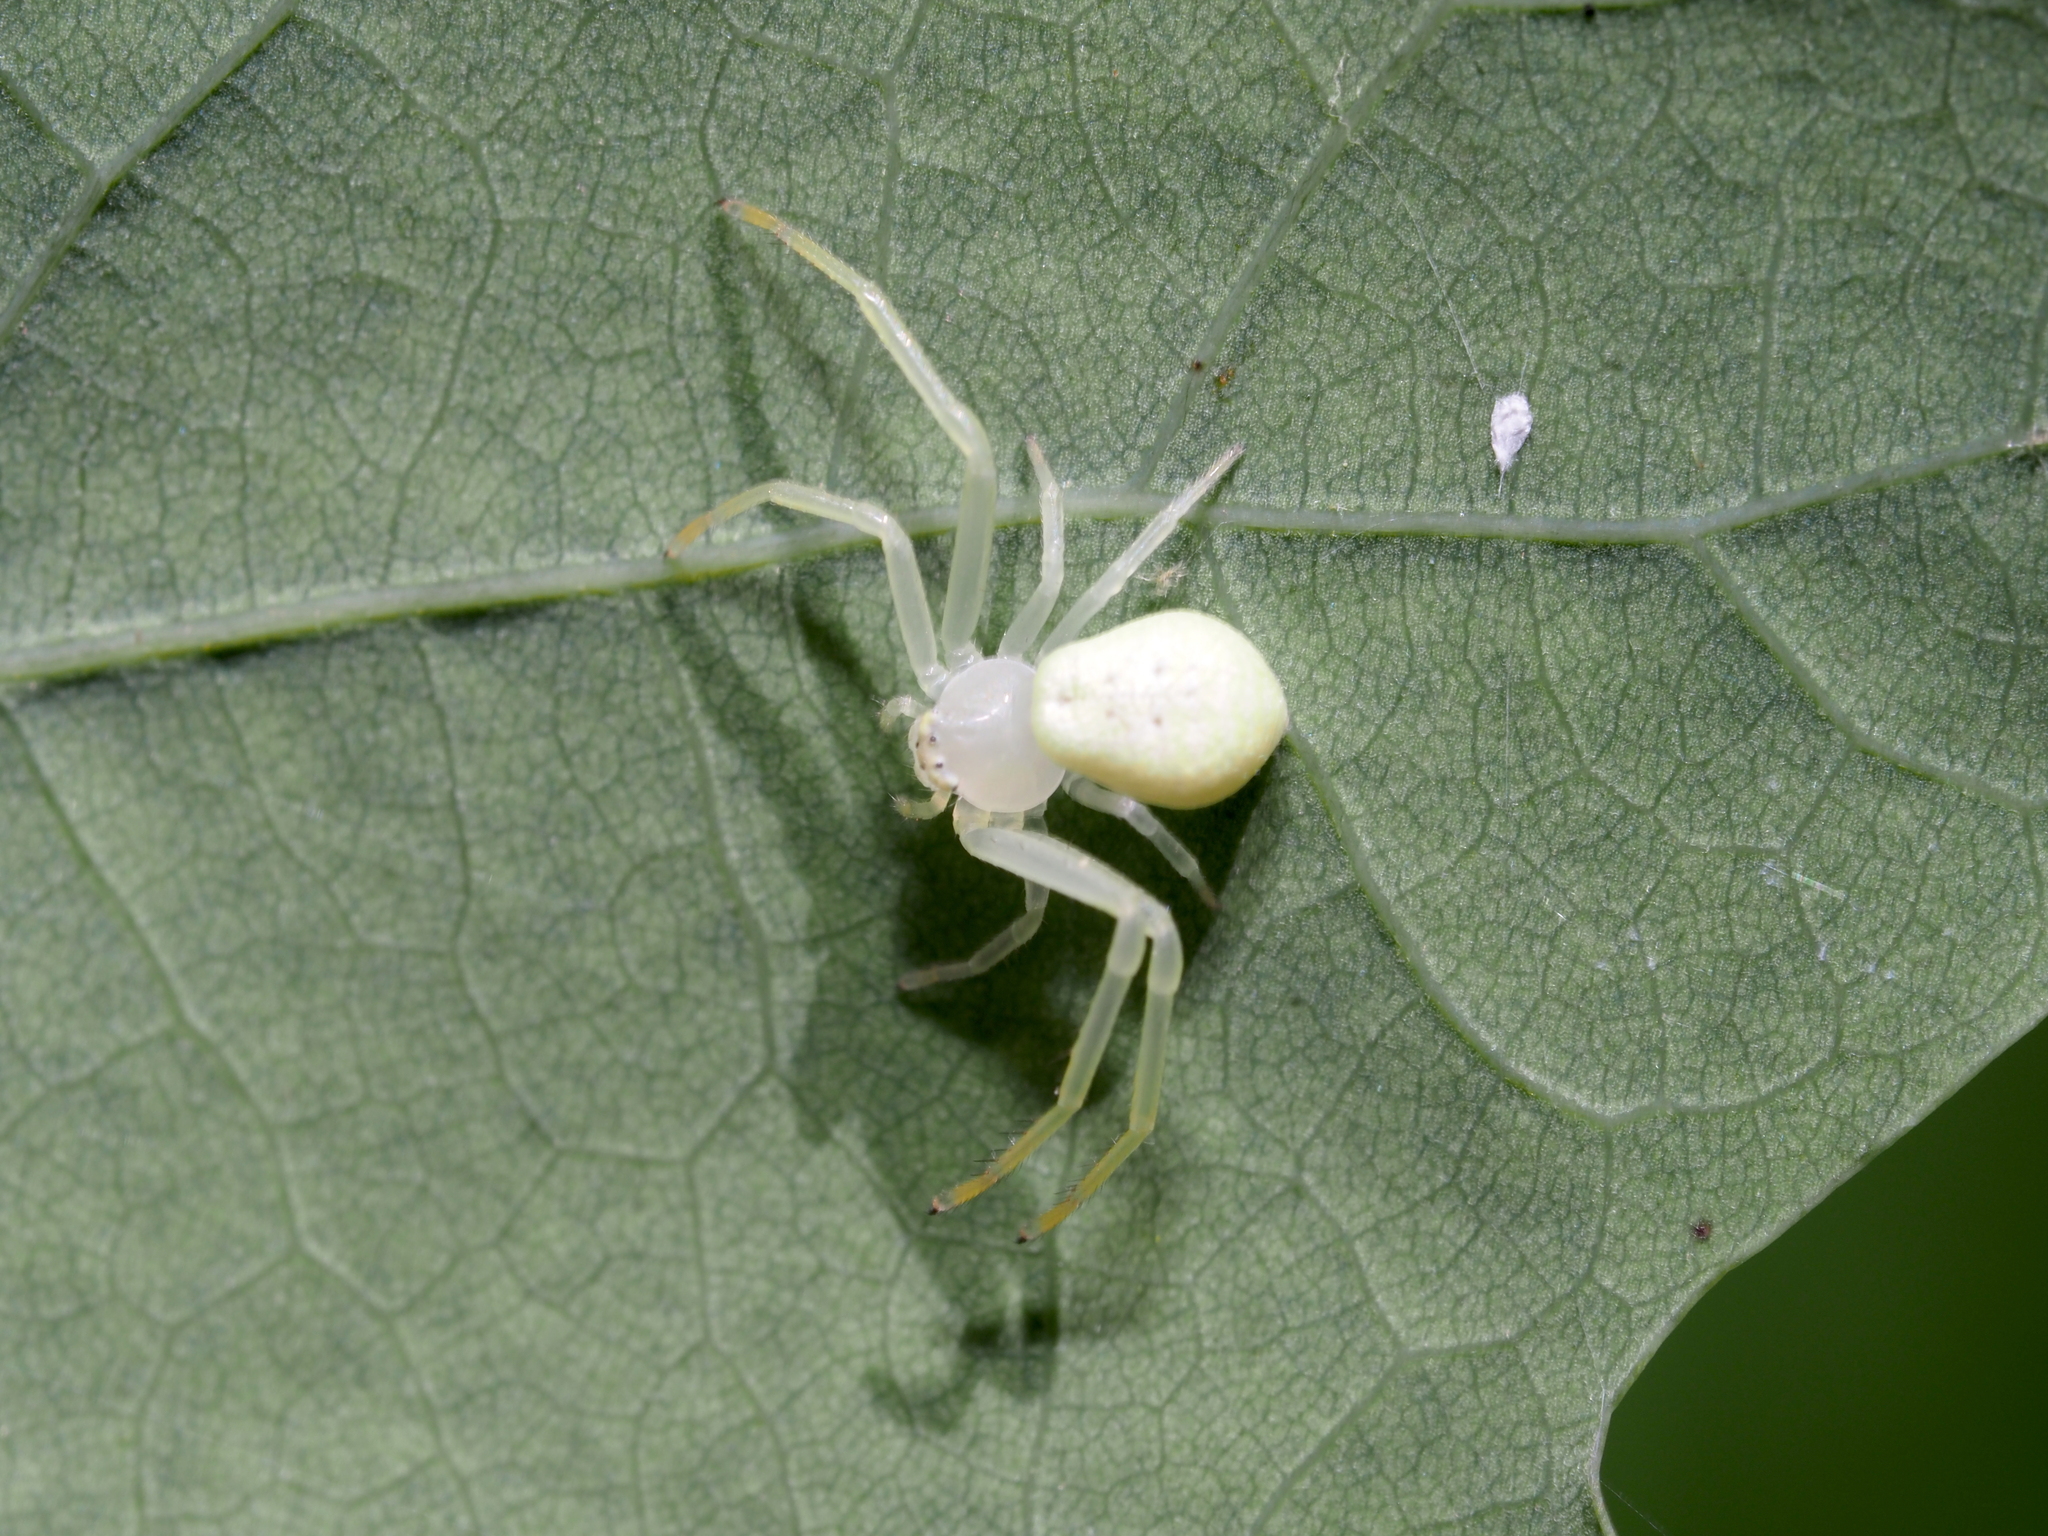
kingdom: Animalia
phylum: Arthropoda
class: Arachnida
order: Araneae
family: Thomisidae
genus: Misumessus
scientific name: Misumessus oblongus
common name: American green crab spider
